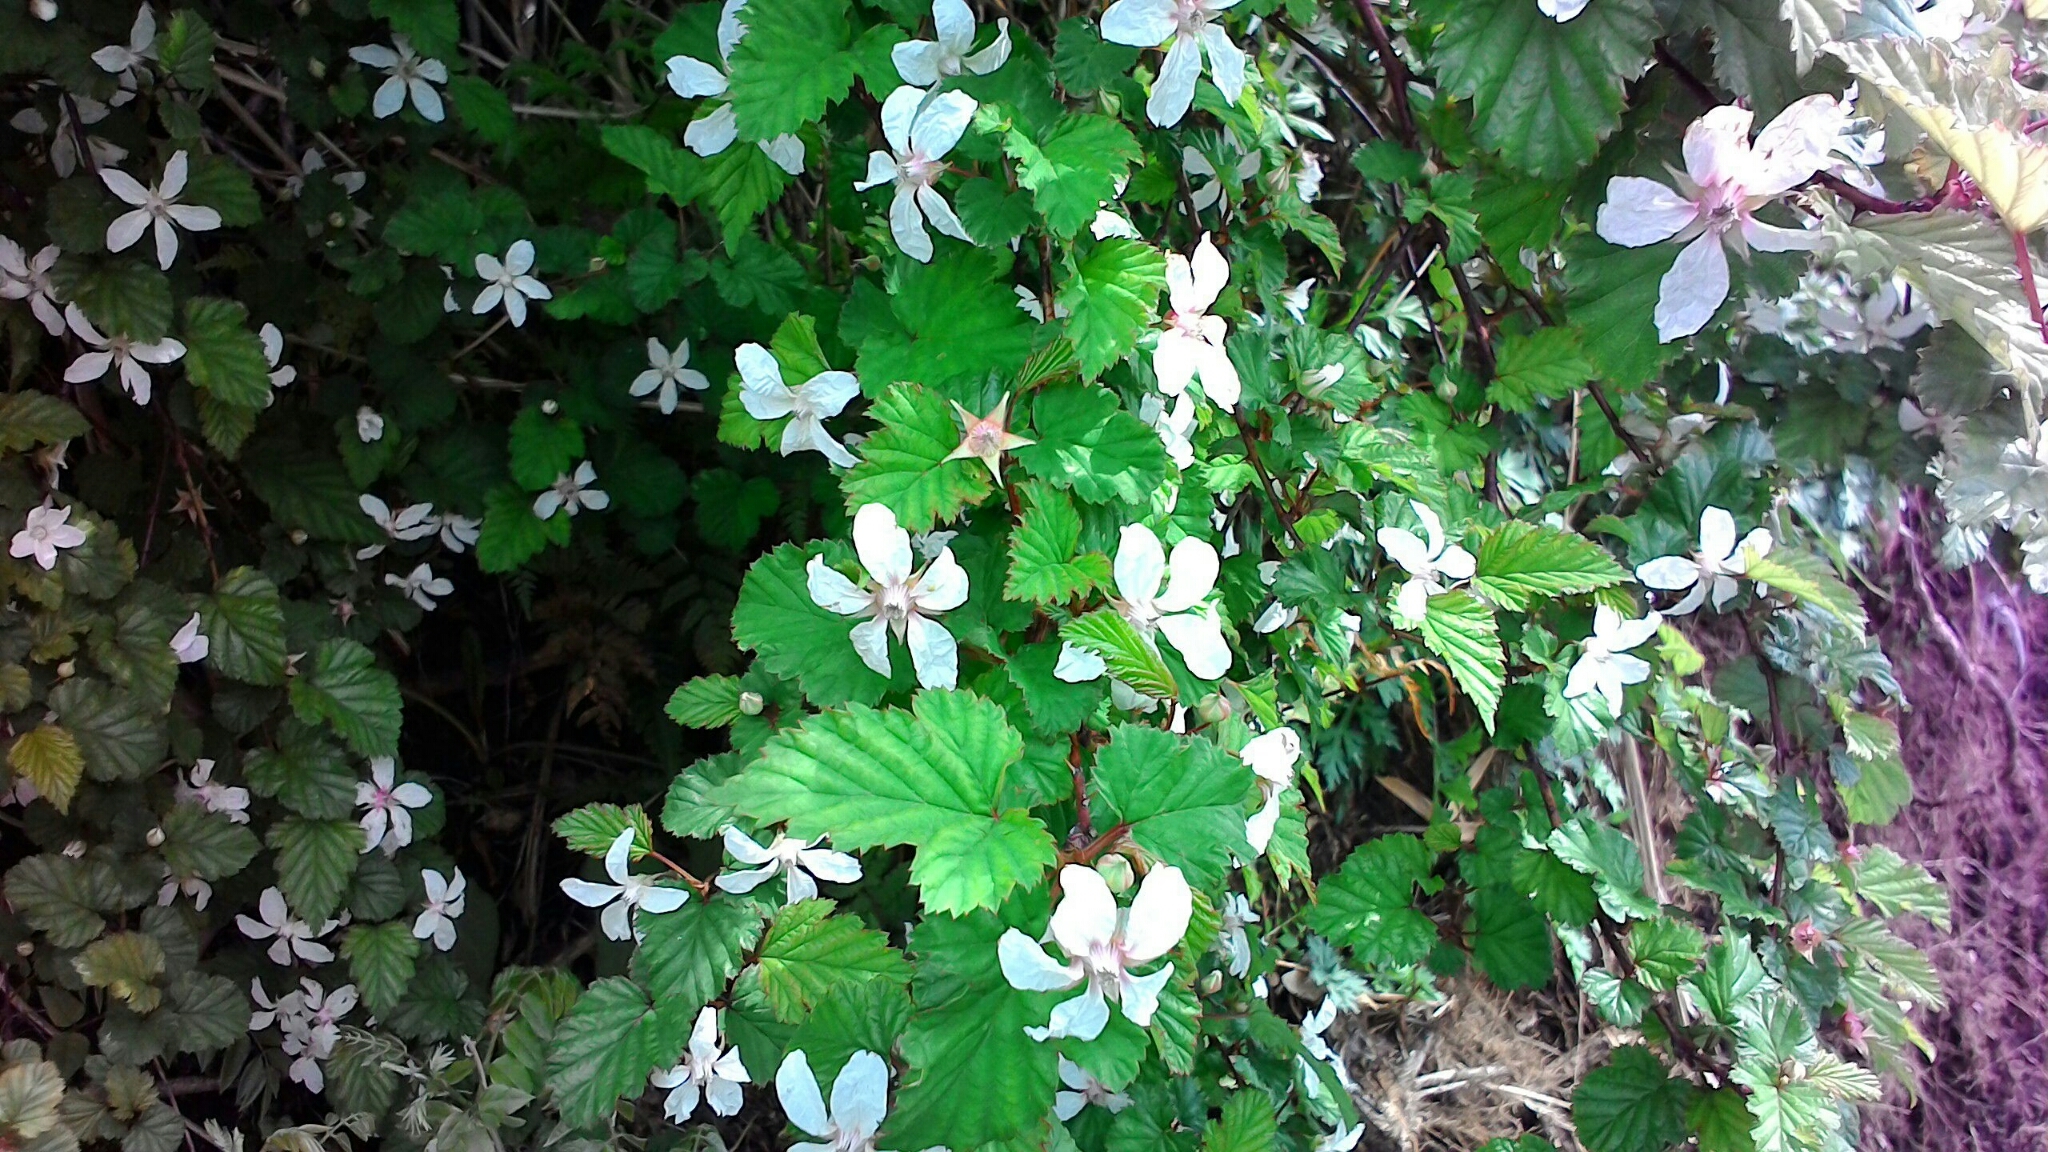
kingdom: Plantae
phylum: Tracheophyta
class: Magnoliopsida
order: Rosales
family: Rosaceae
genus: Rubus
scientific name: Rubus microphyllus
